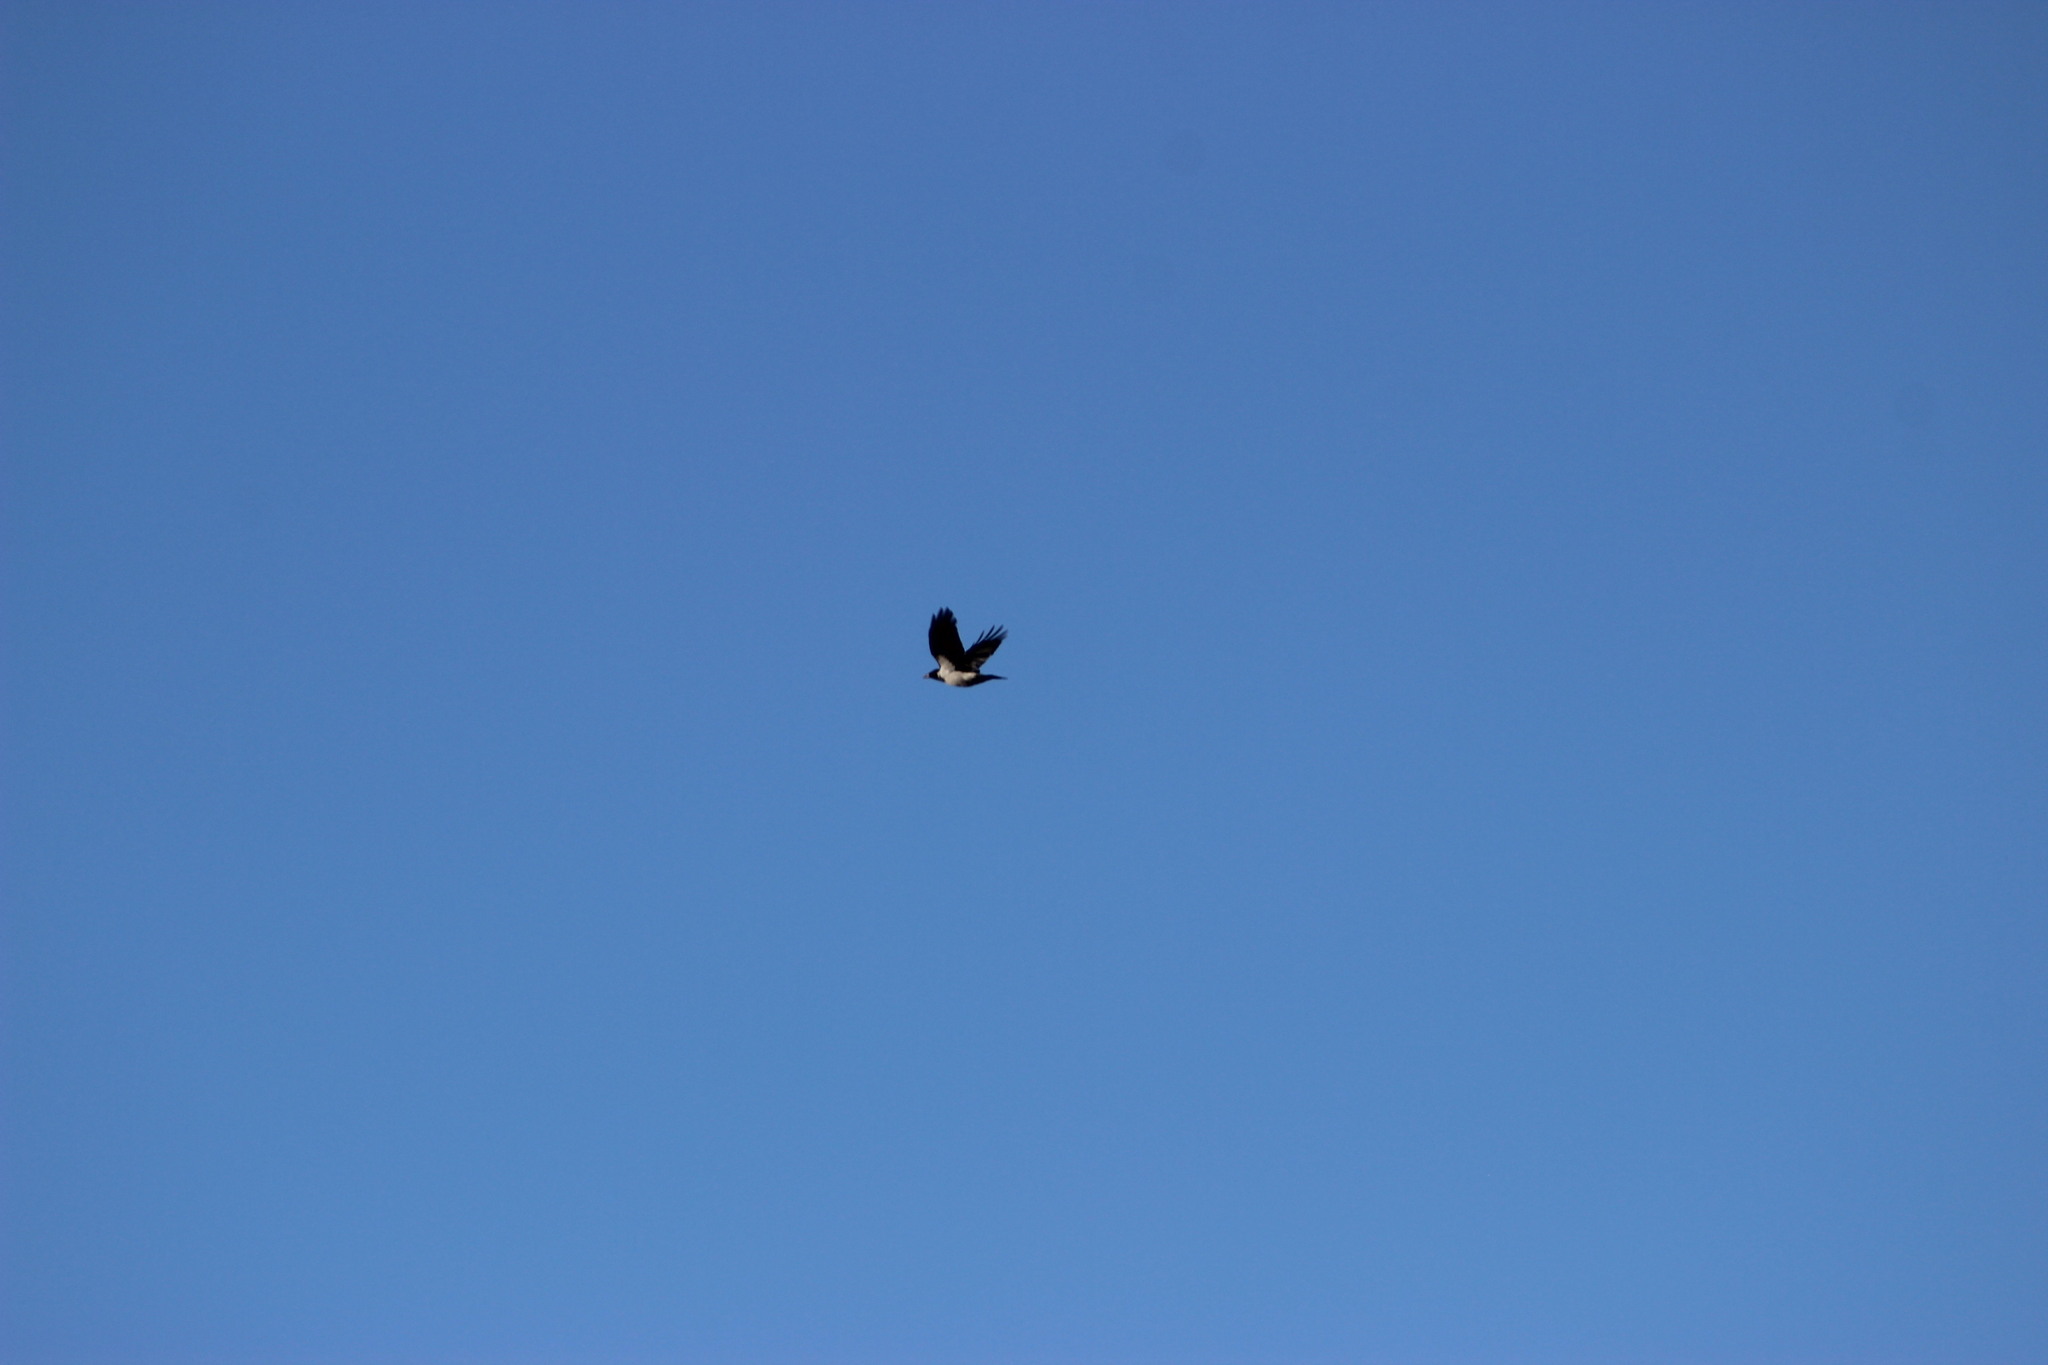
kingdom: Animalia
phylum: Chordata
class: Aves
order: Passeriformes
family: Corvidae
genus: Corvus
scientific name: Corvus cornix
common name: Hooded crow
